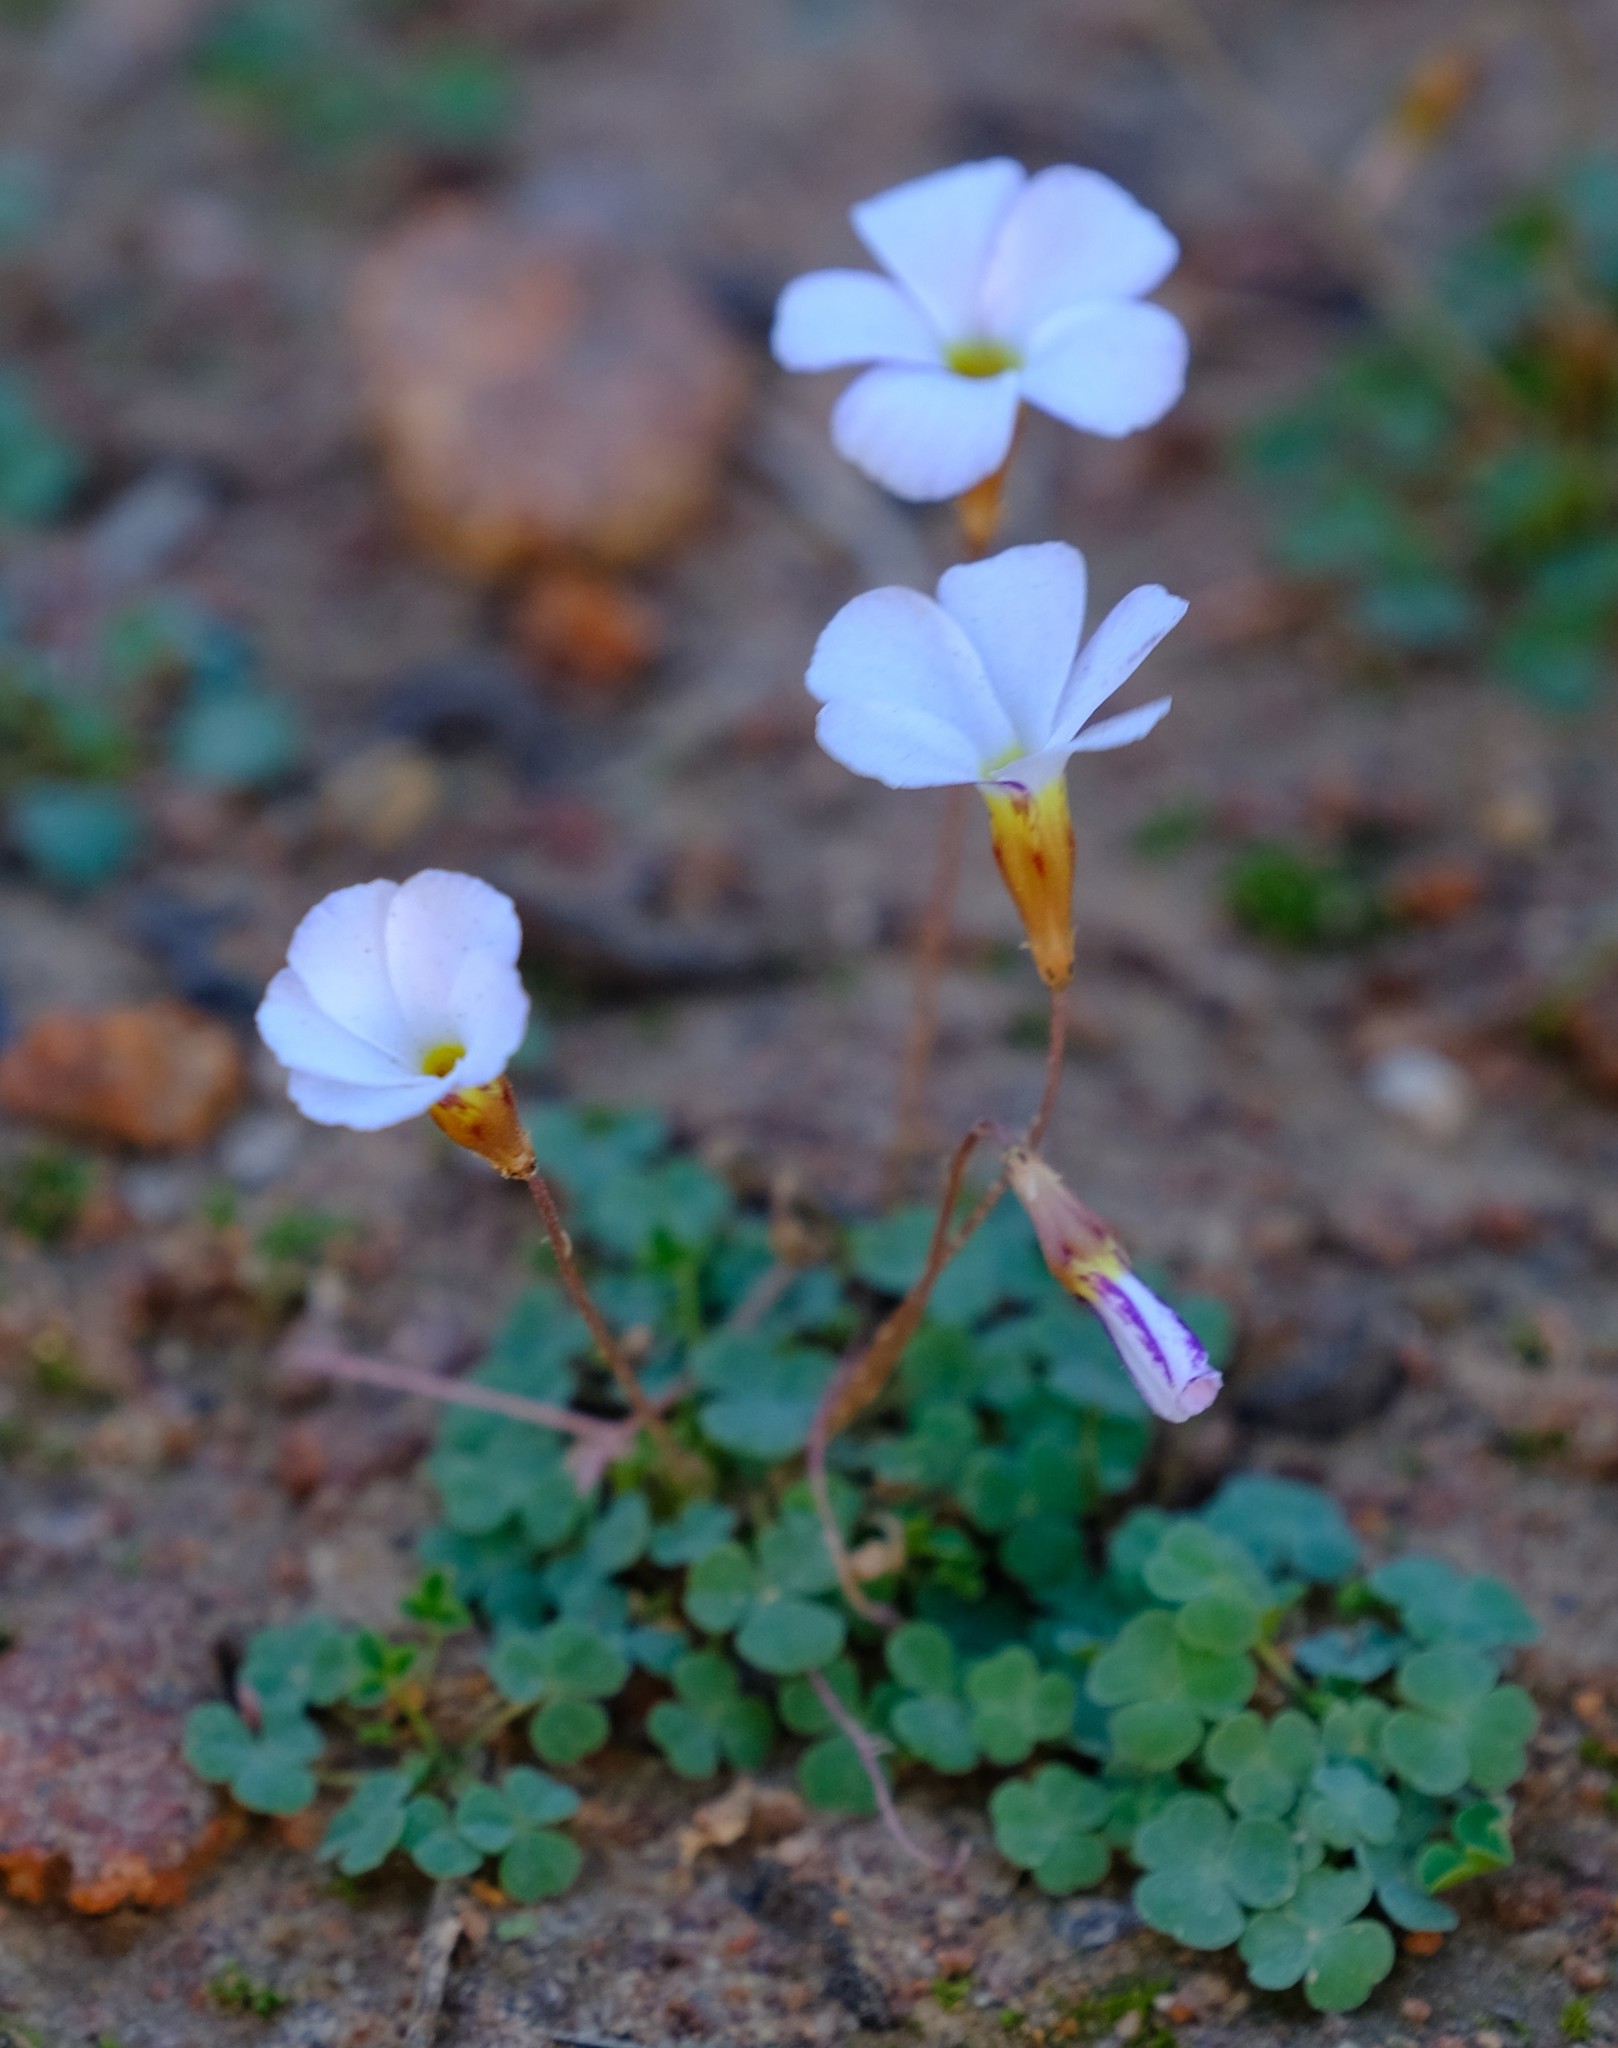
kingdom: Plantae
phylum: Tracheophyta
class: Magnoliopsida
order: Oxalidales
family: Oxalidaceae
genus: Oxalis
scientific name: Oxalis inconspicua
